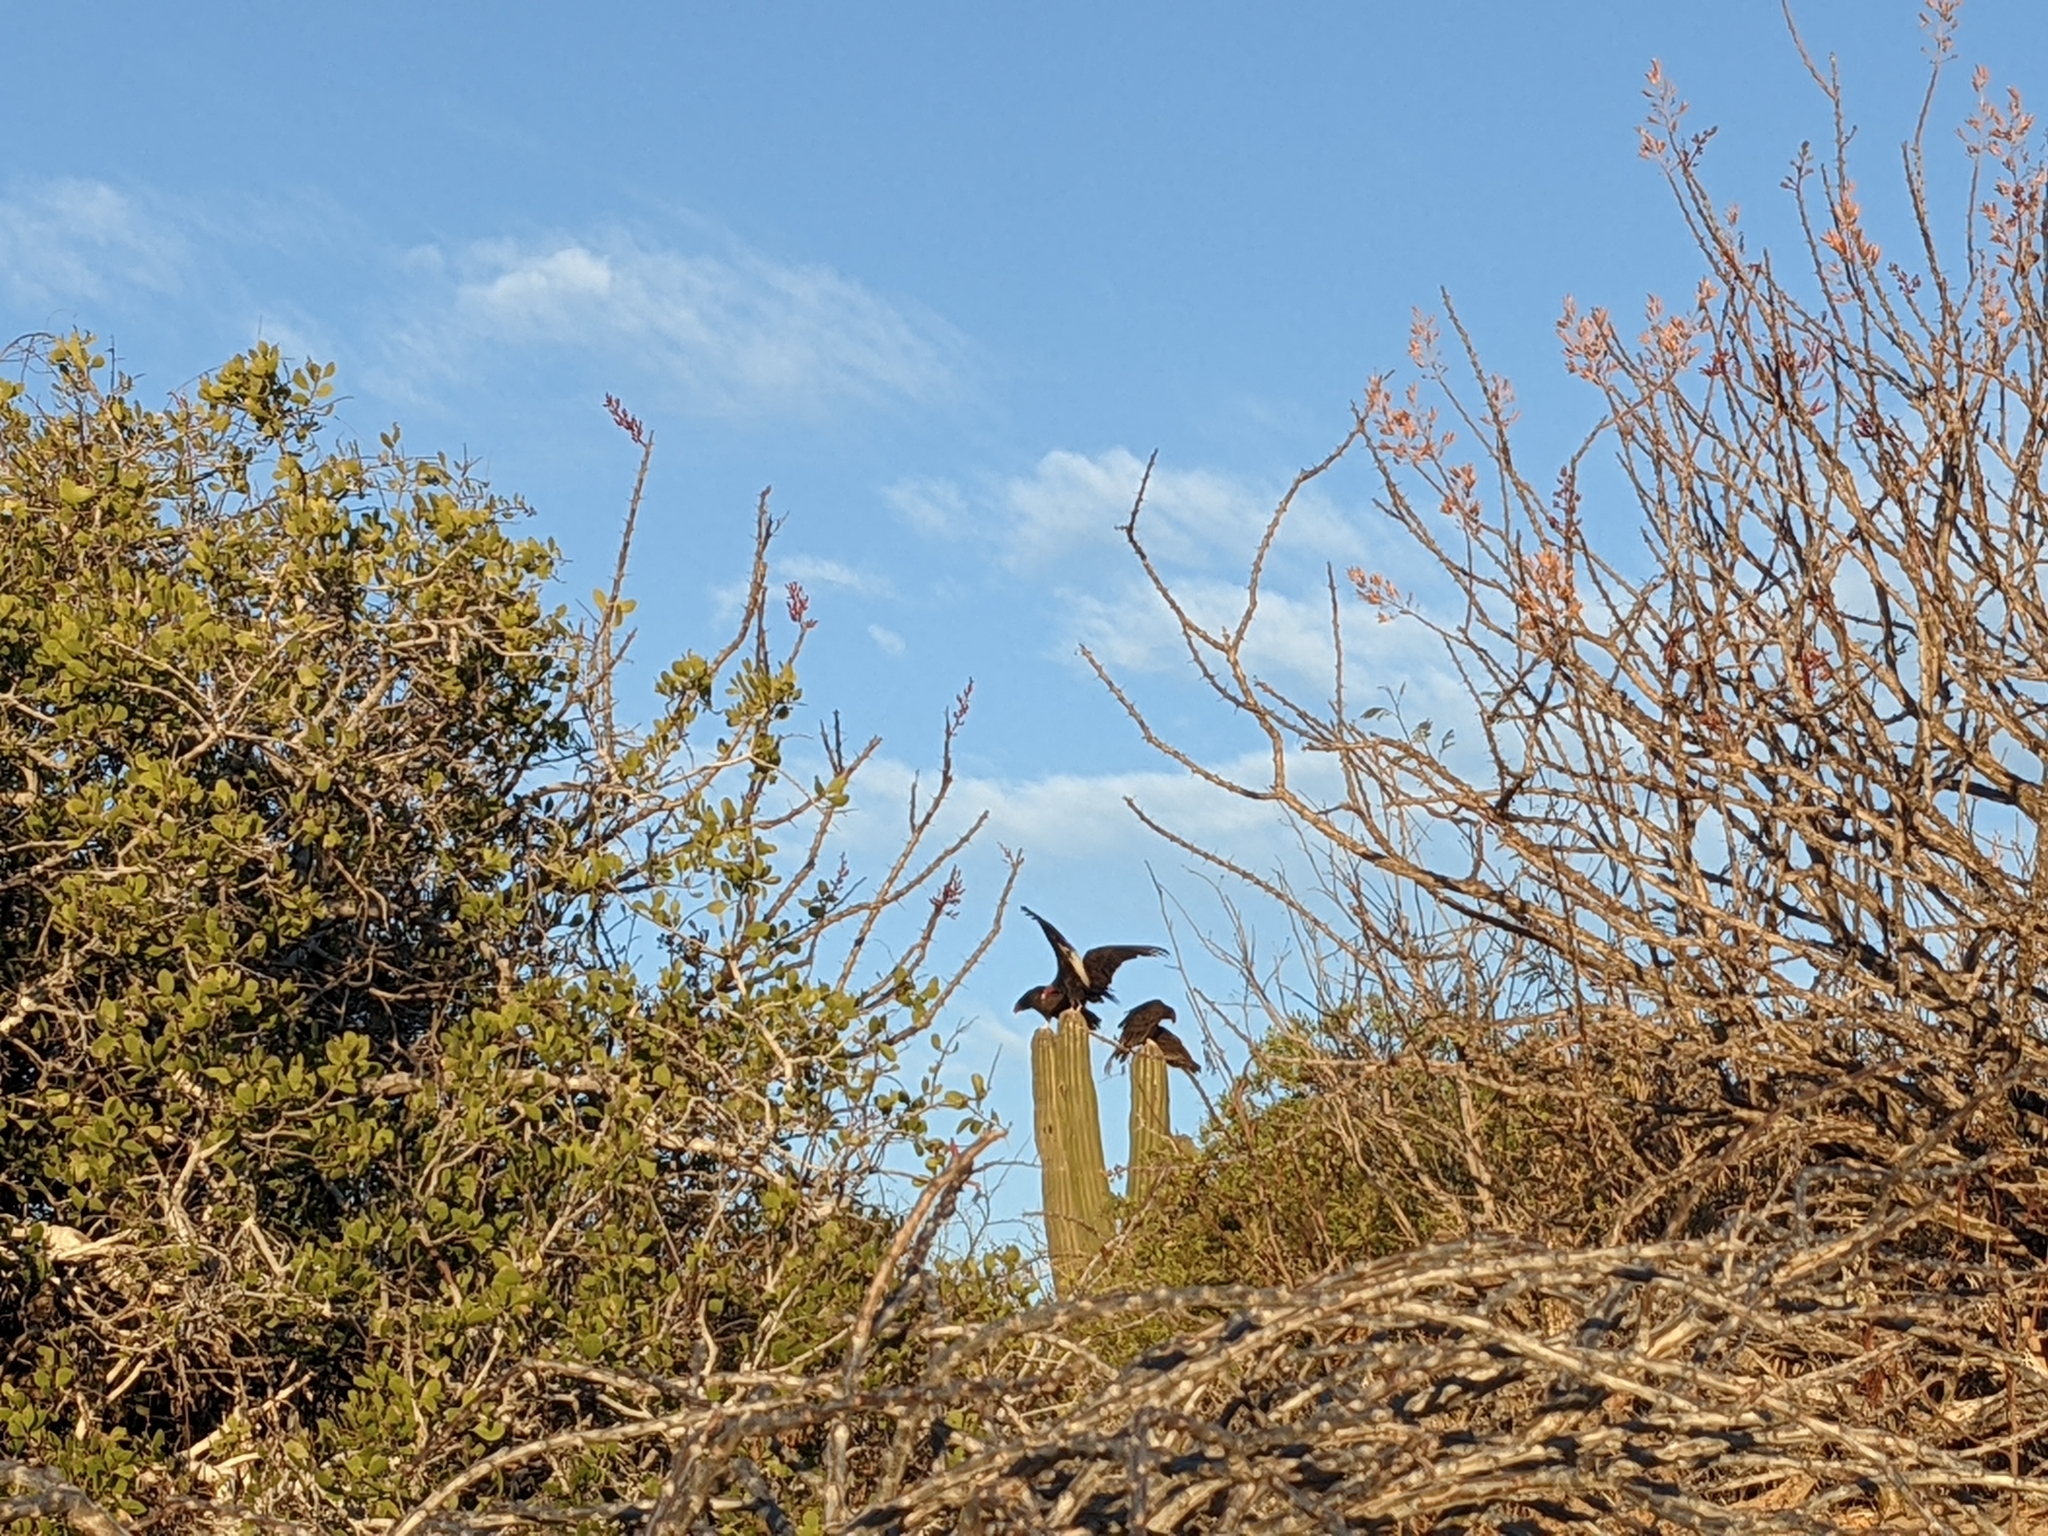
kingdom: Animalia
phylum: Chordata
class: Aves
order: Accipitriformes
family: Cathartidae
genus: Cathartes
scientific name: Cathartes aura
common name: Turkey vulture
